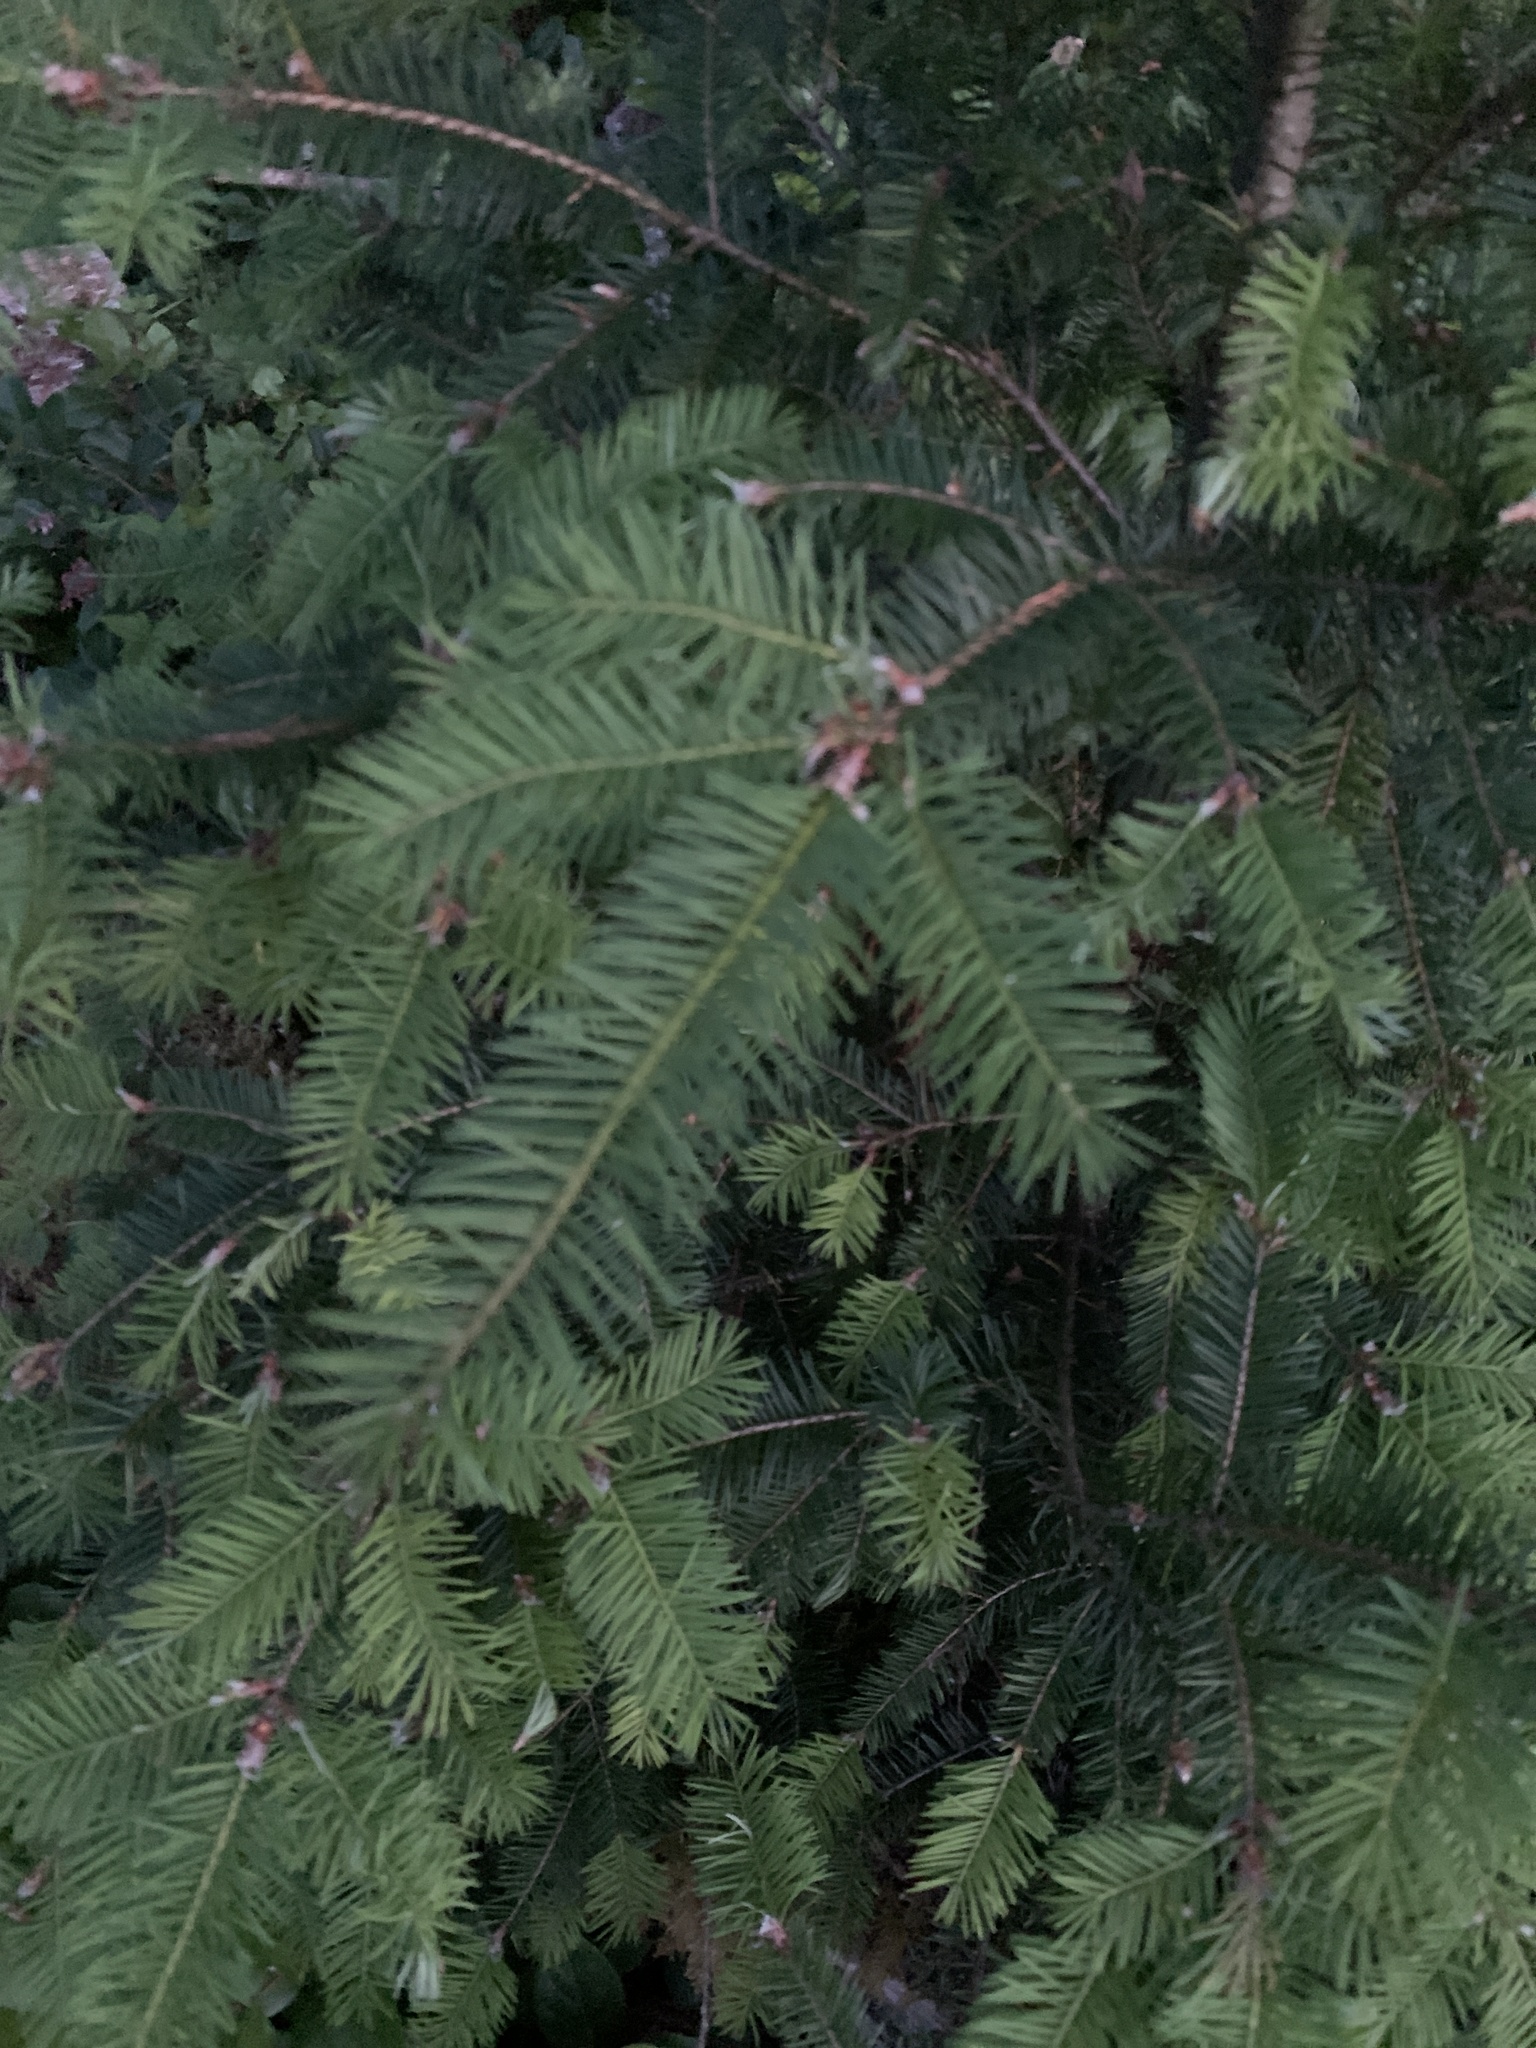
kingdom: Plantae
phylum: Tracheophyta
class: Pinopsida
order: Pinales
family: Pinaceae
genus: Pseudotsuga
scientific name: Pseudotsuga menziesii
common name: Douglas fir
